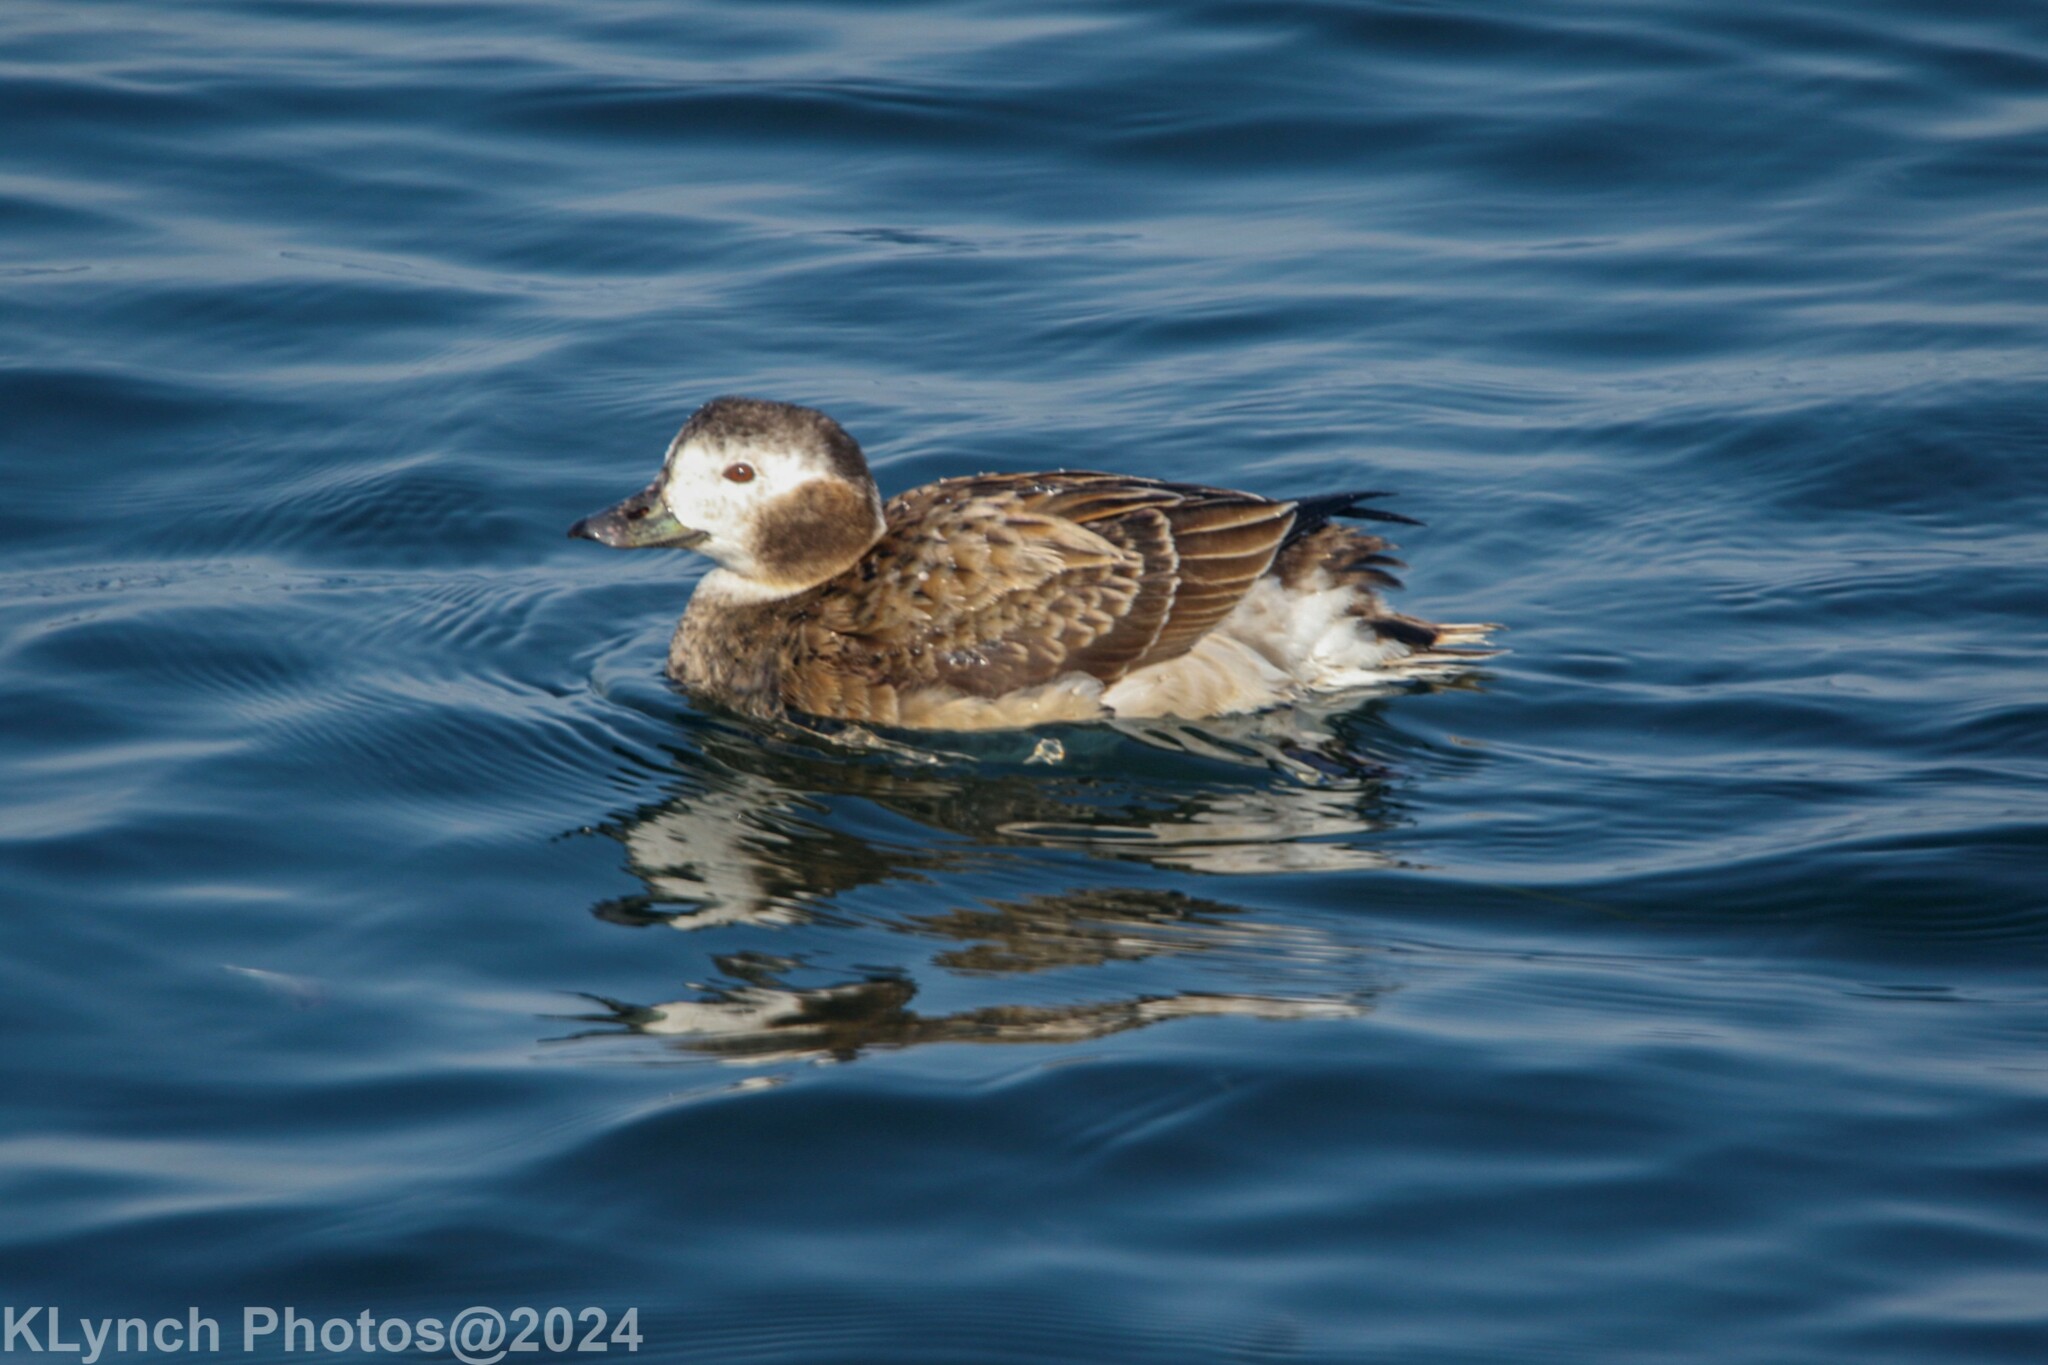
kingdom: Animalia
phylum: Chordata
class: Aves
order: Anseriformes
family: Anatidae
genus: Clangula
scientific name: Clangula hyemalis
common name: Long-tailed duck
